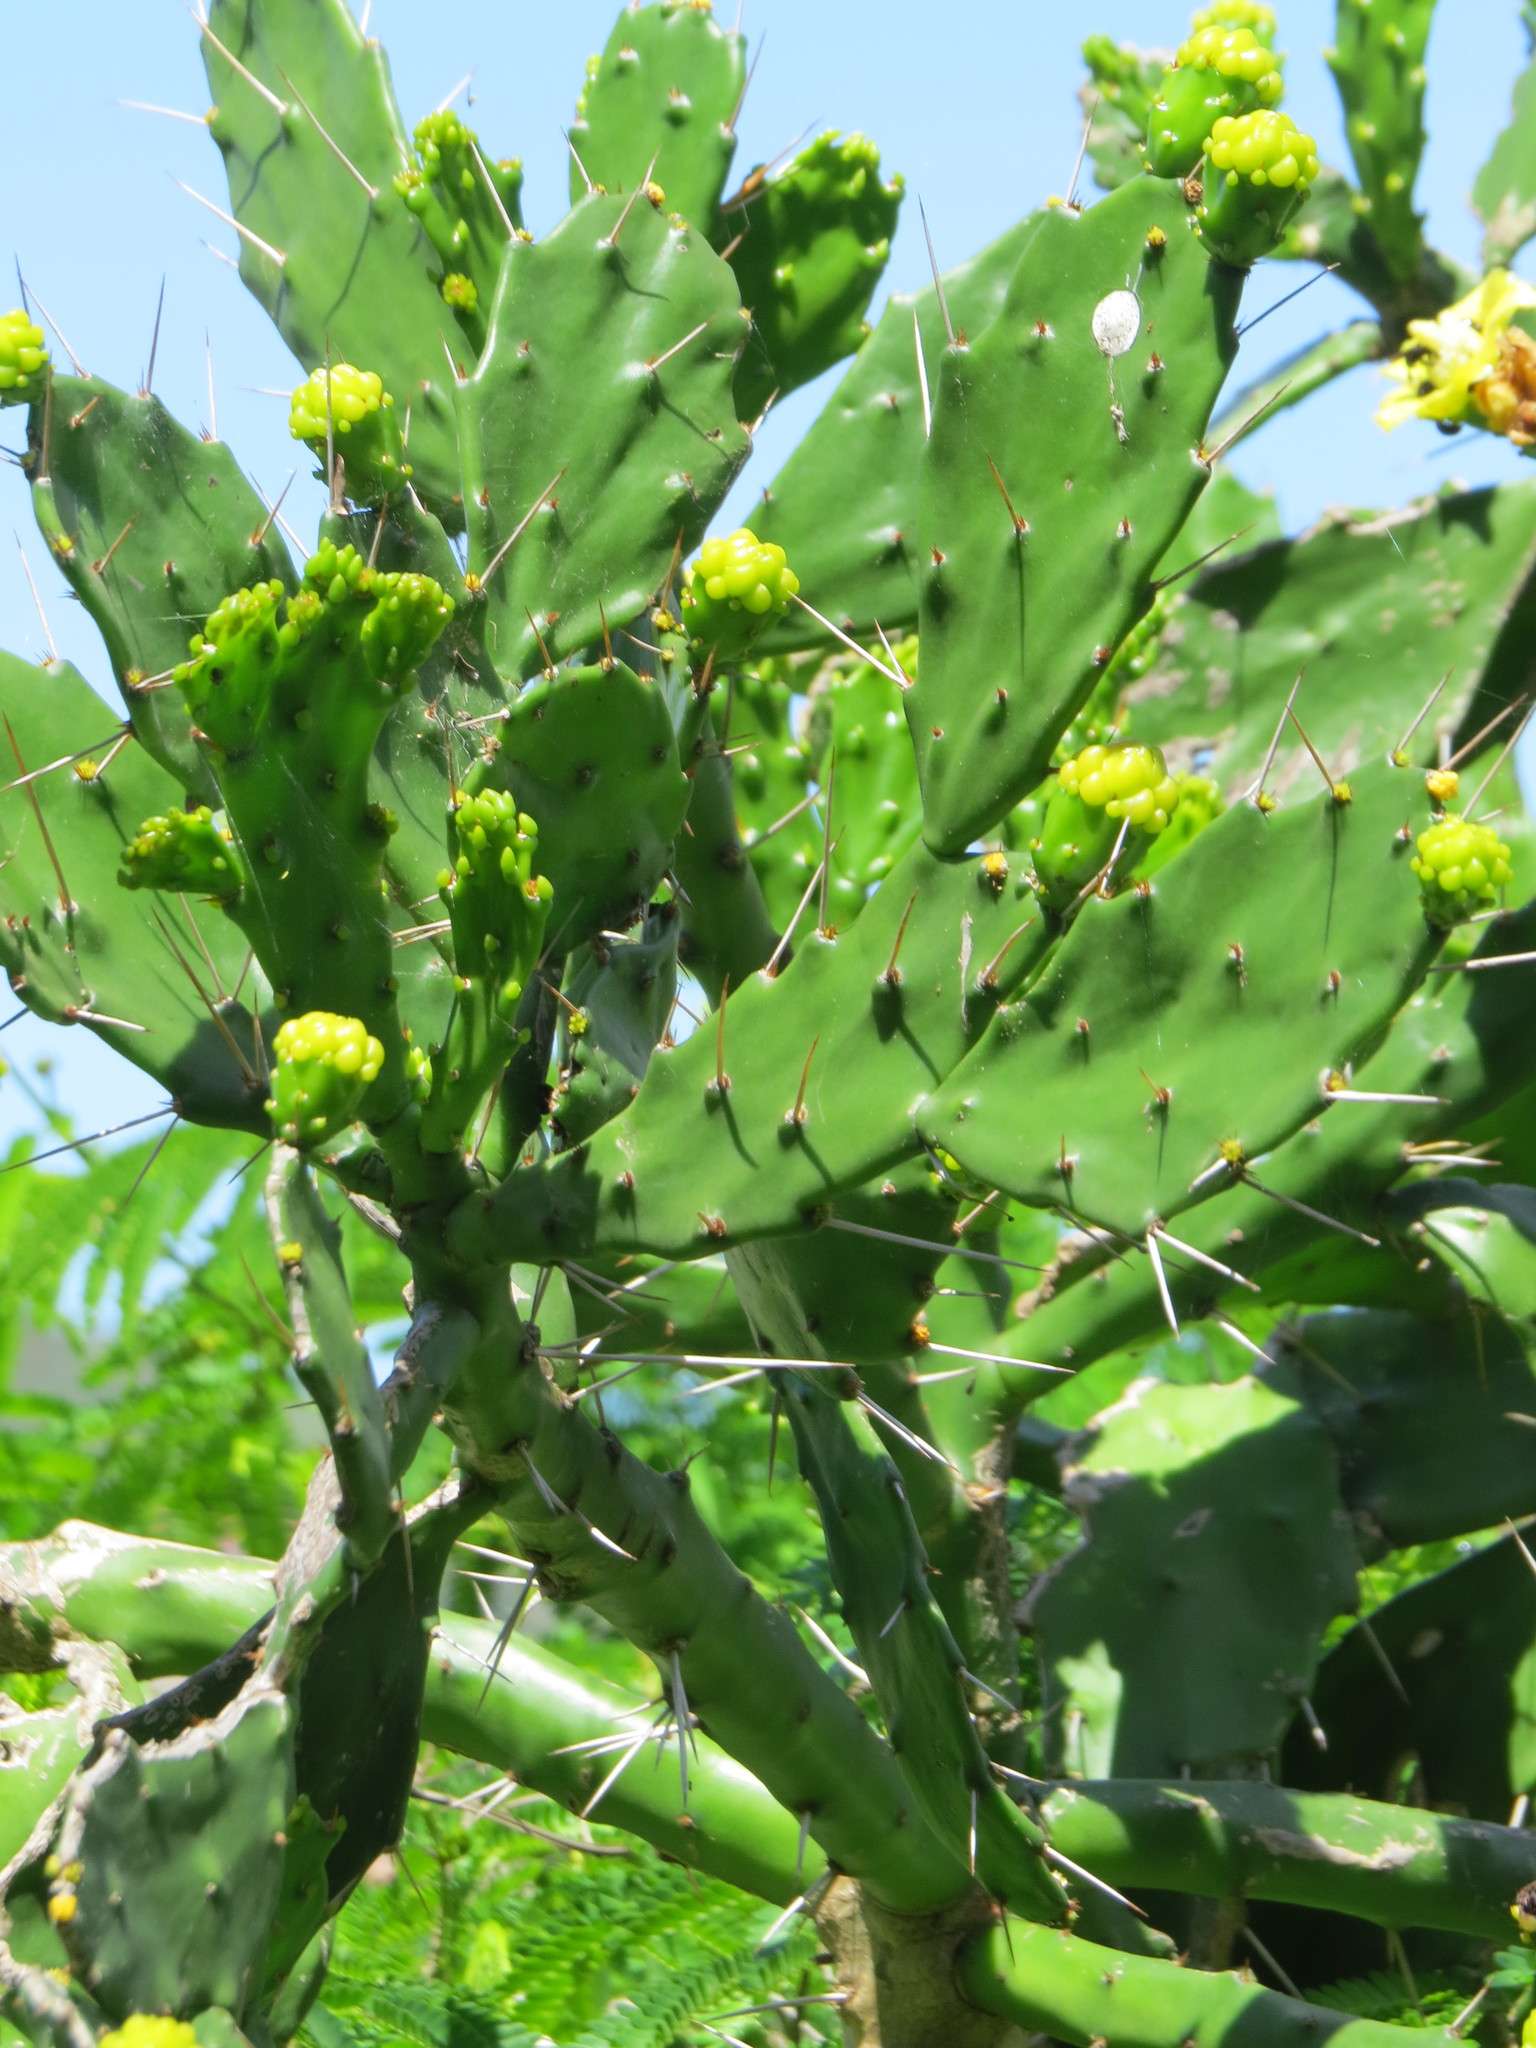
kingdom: Plantae
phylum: Tracheophyta
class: Magnoliopsida
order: Caryophyllales
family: Cactaceae
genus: Brasiliopuntia
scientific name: Brasiliopuntia brasiliensis
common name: Brazilian pricklypear
